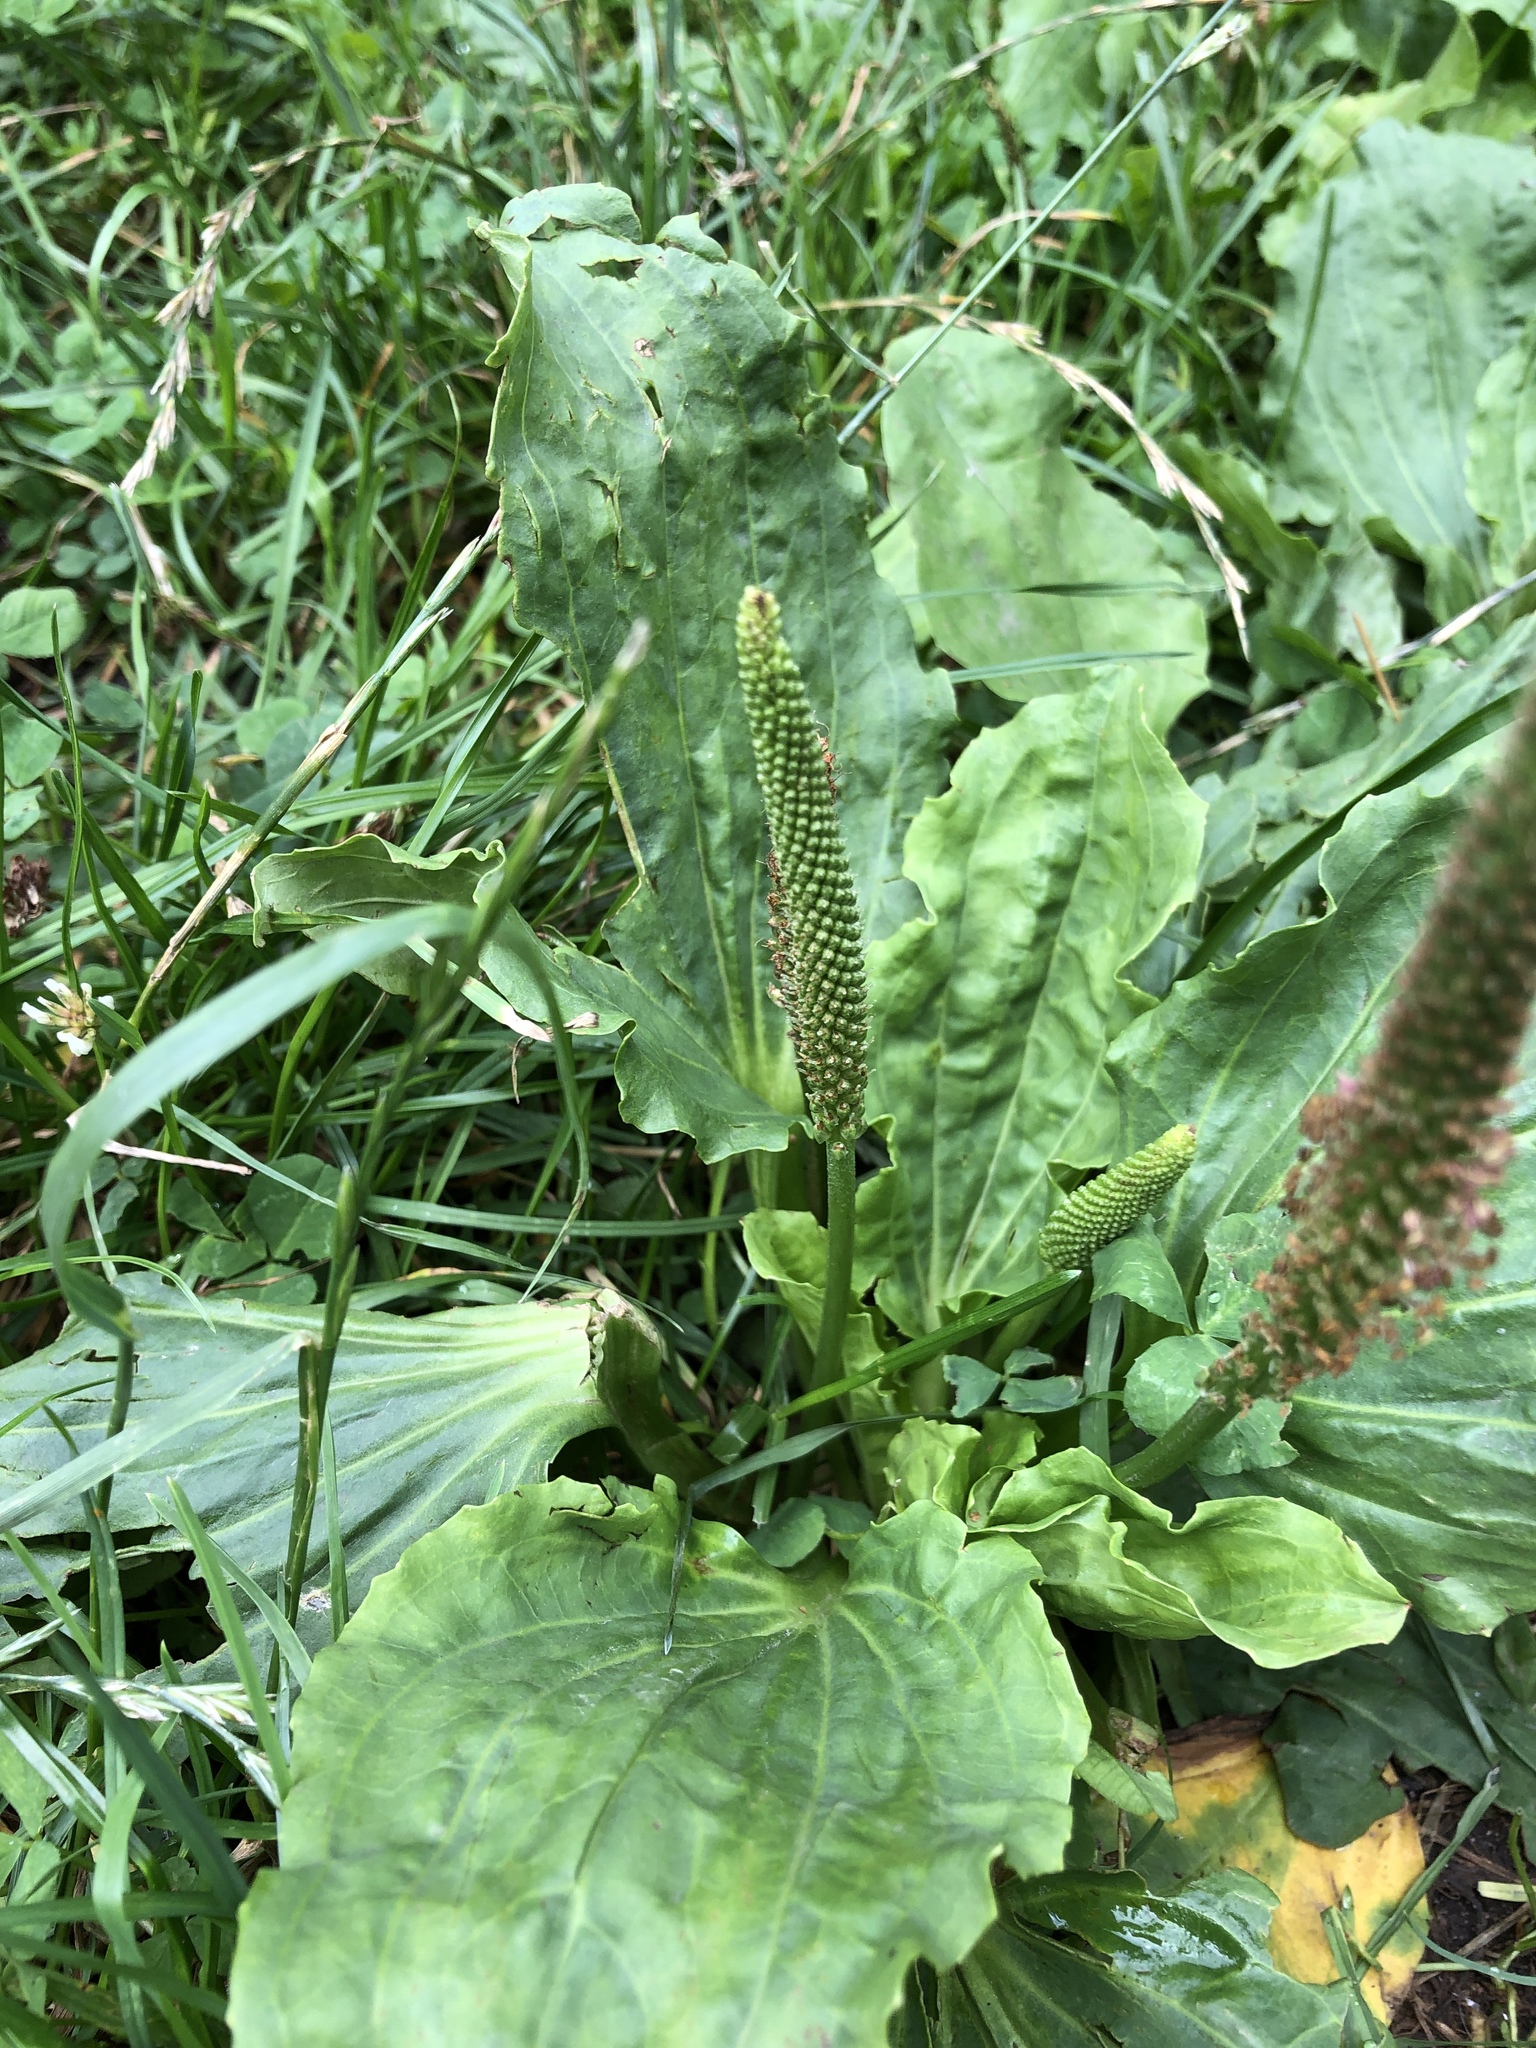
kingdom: Plantae
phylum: Tracheophyta
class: Magnoliopsida
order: Lamiales
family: Plantaginaceae
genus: Plantago
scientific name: Plantago major
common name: Common plantain
